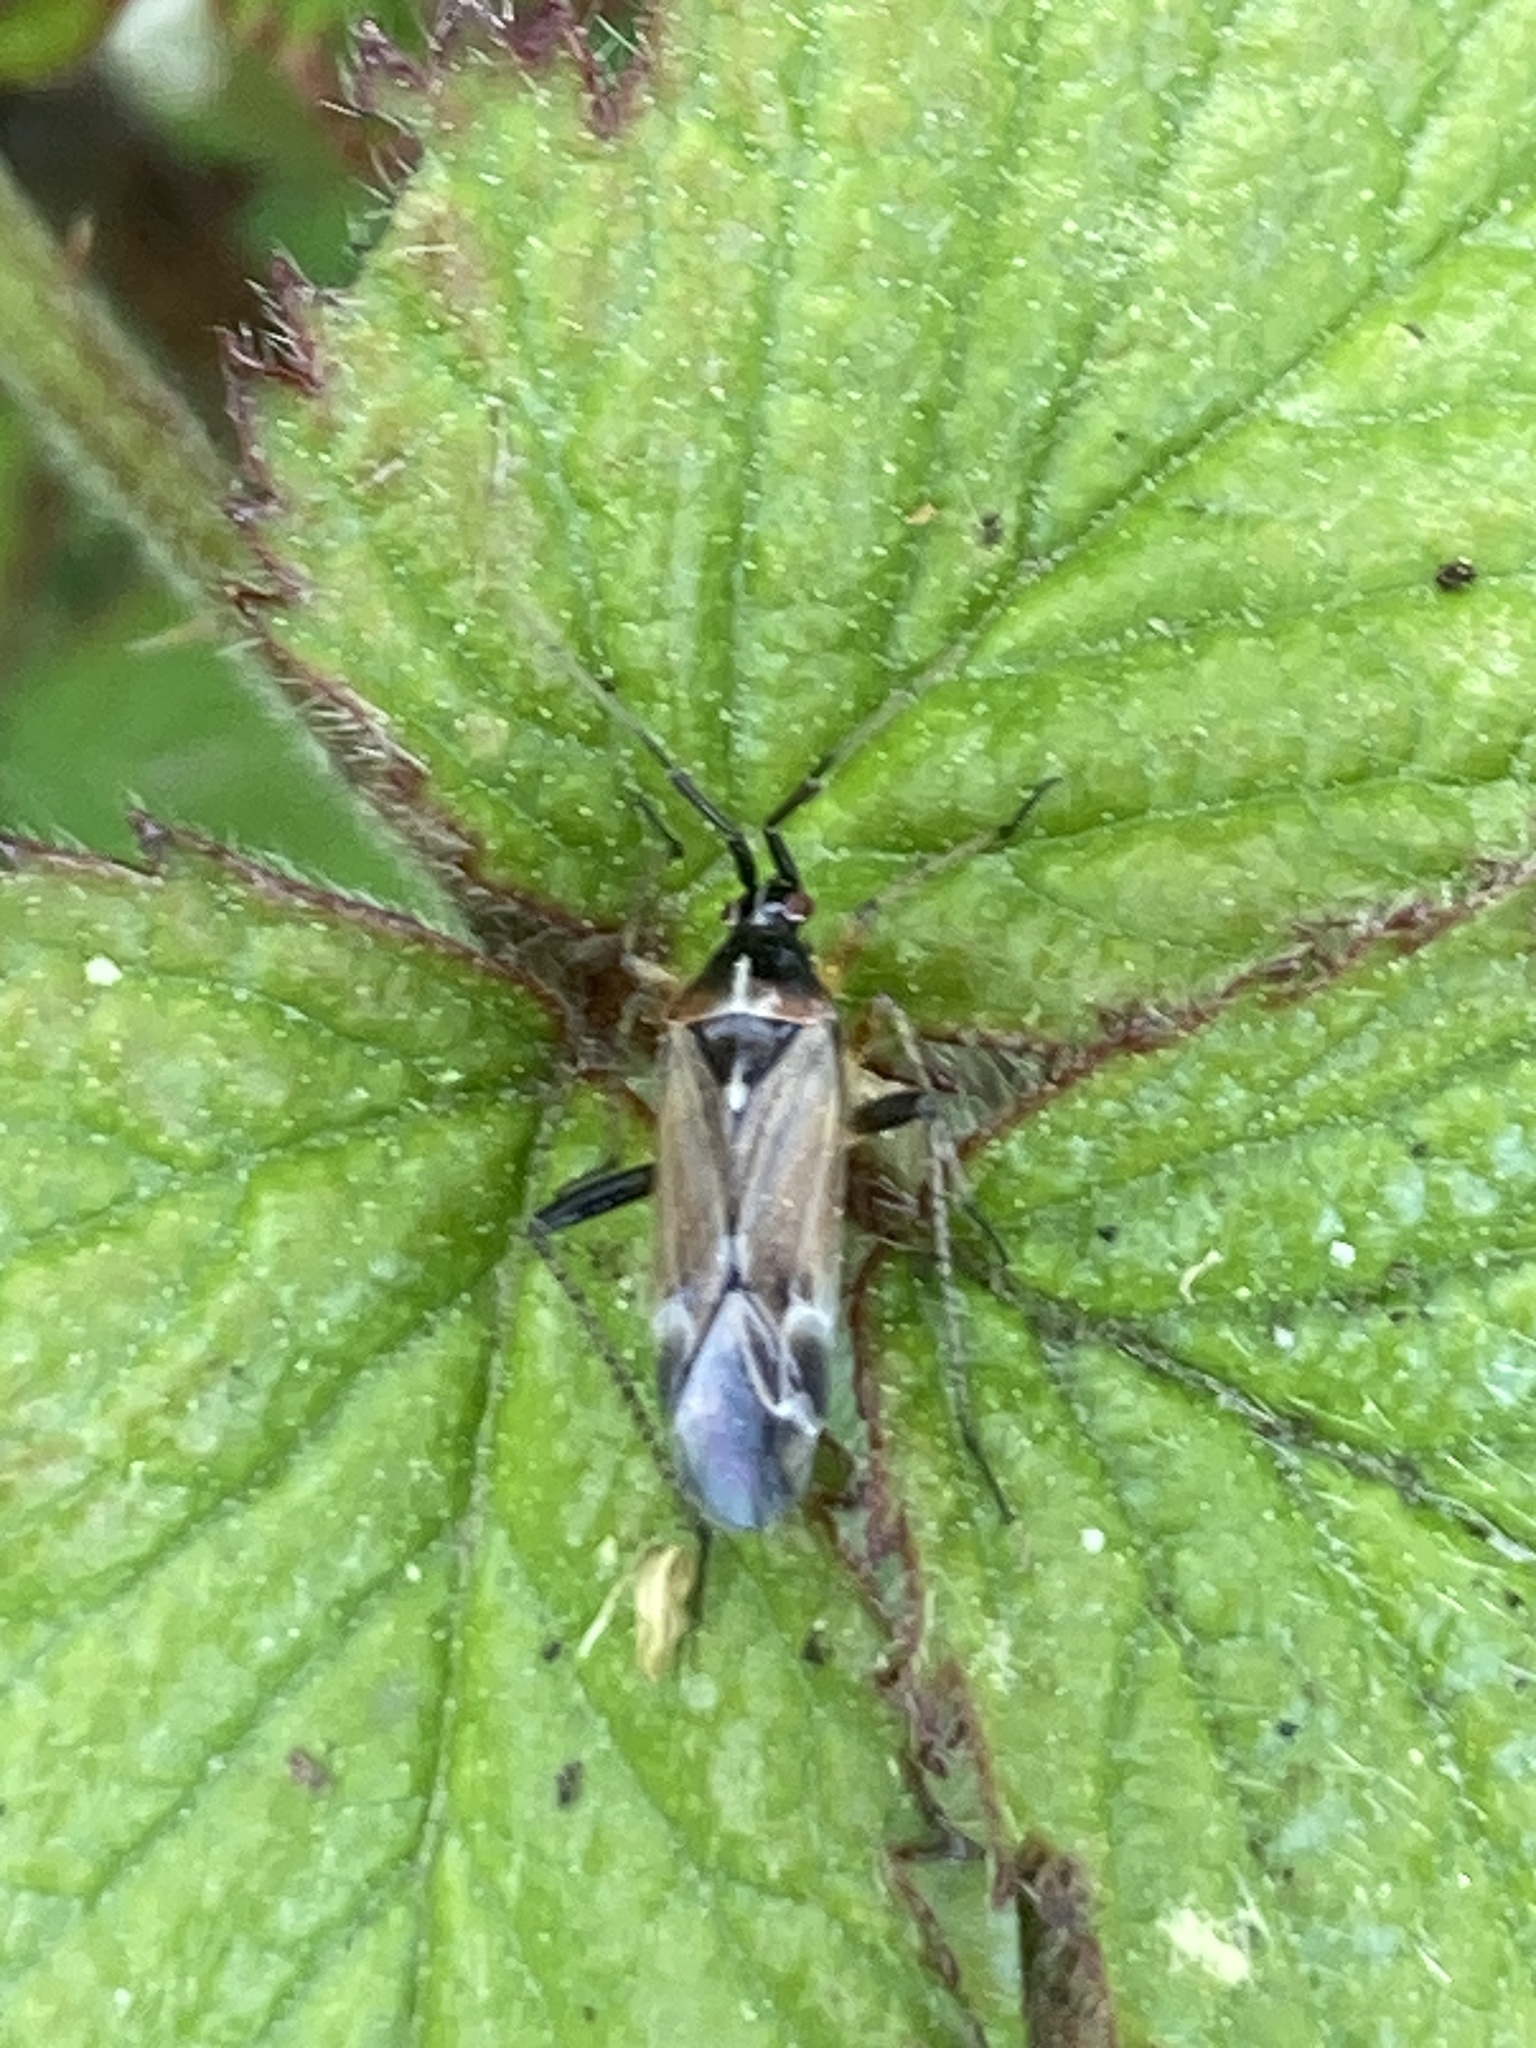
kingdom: Animalia
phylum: Arthropoda
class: Insecta
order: Hemiptera
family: Miridae
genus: Harpocera
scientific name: Harpocera thoracica
